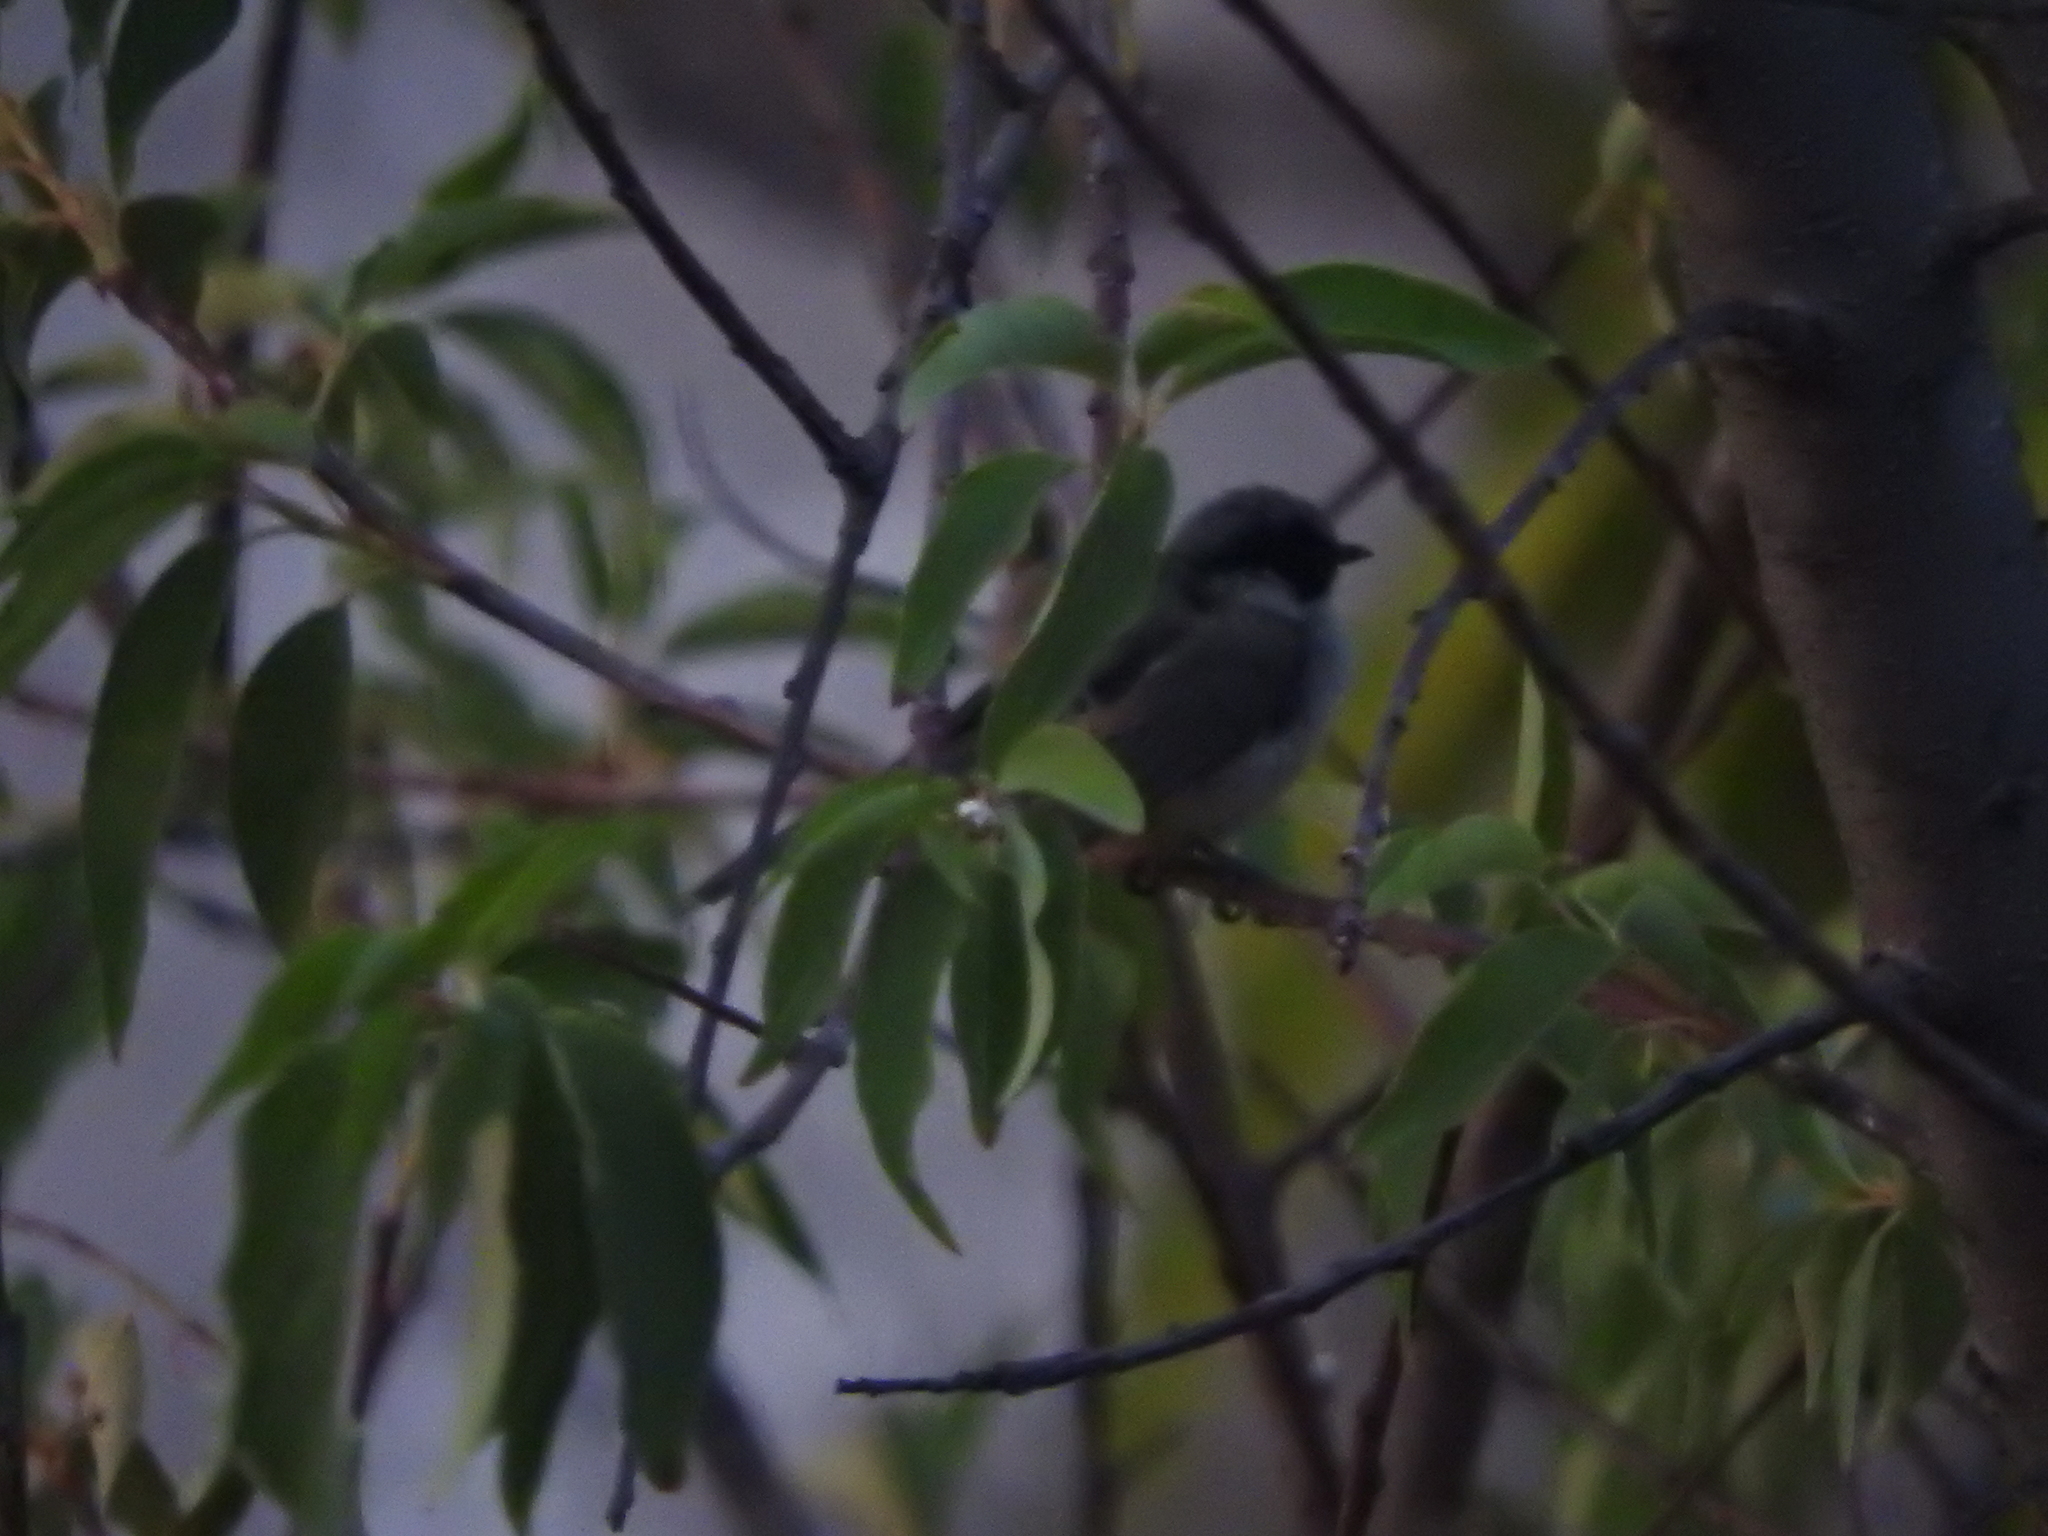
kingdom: Animalia
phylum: Chordata
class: Aves
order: Passeriformes
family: Aegithalidae
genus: Psaltriparus
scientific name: Psaltriparus minimus
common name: American bushtit
